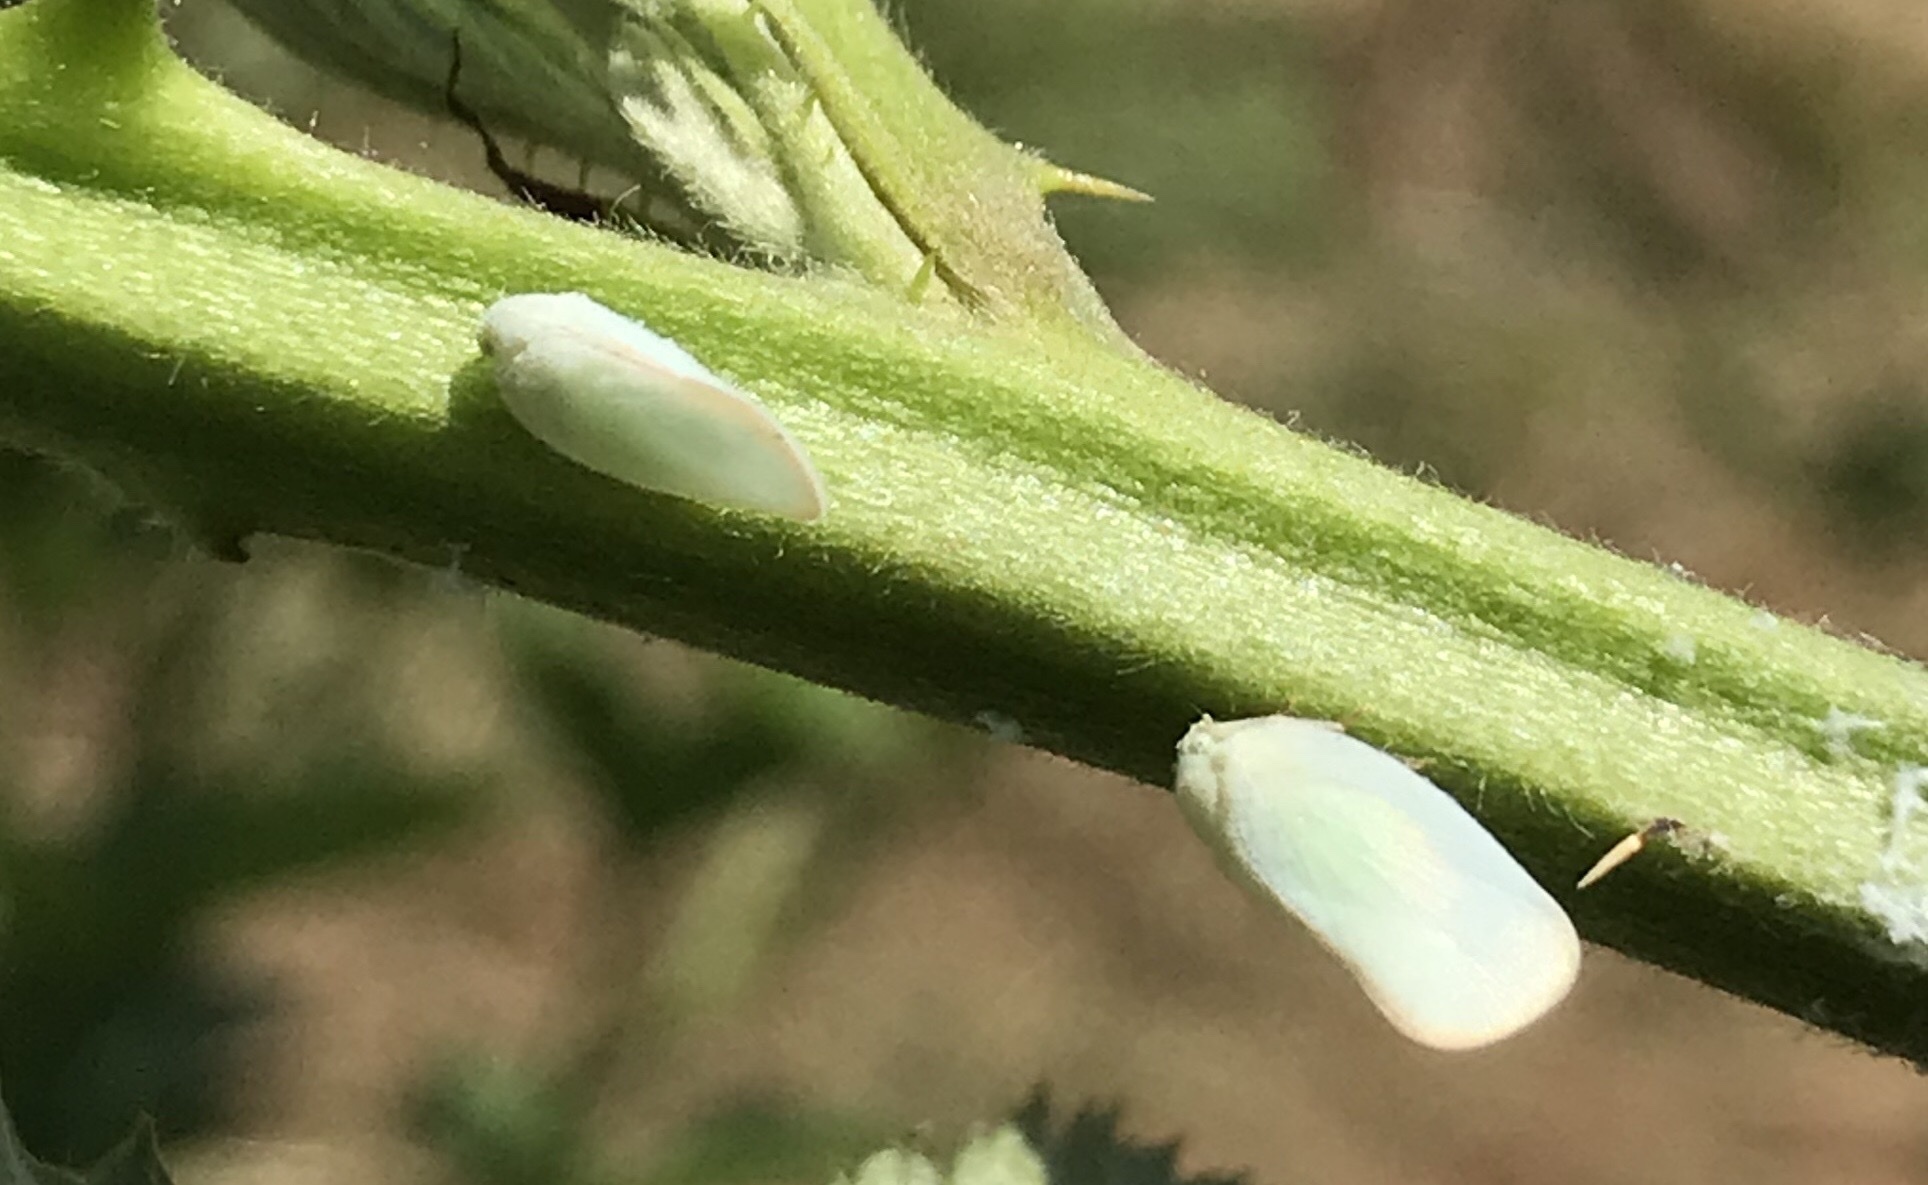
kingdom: Animalia
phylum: Arthropoda
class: Insecta
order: Hemiptera
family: Flatidae
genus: Ormenoides
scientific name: Ormenoides venusta
